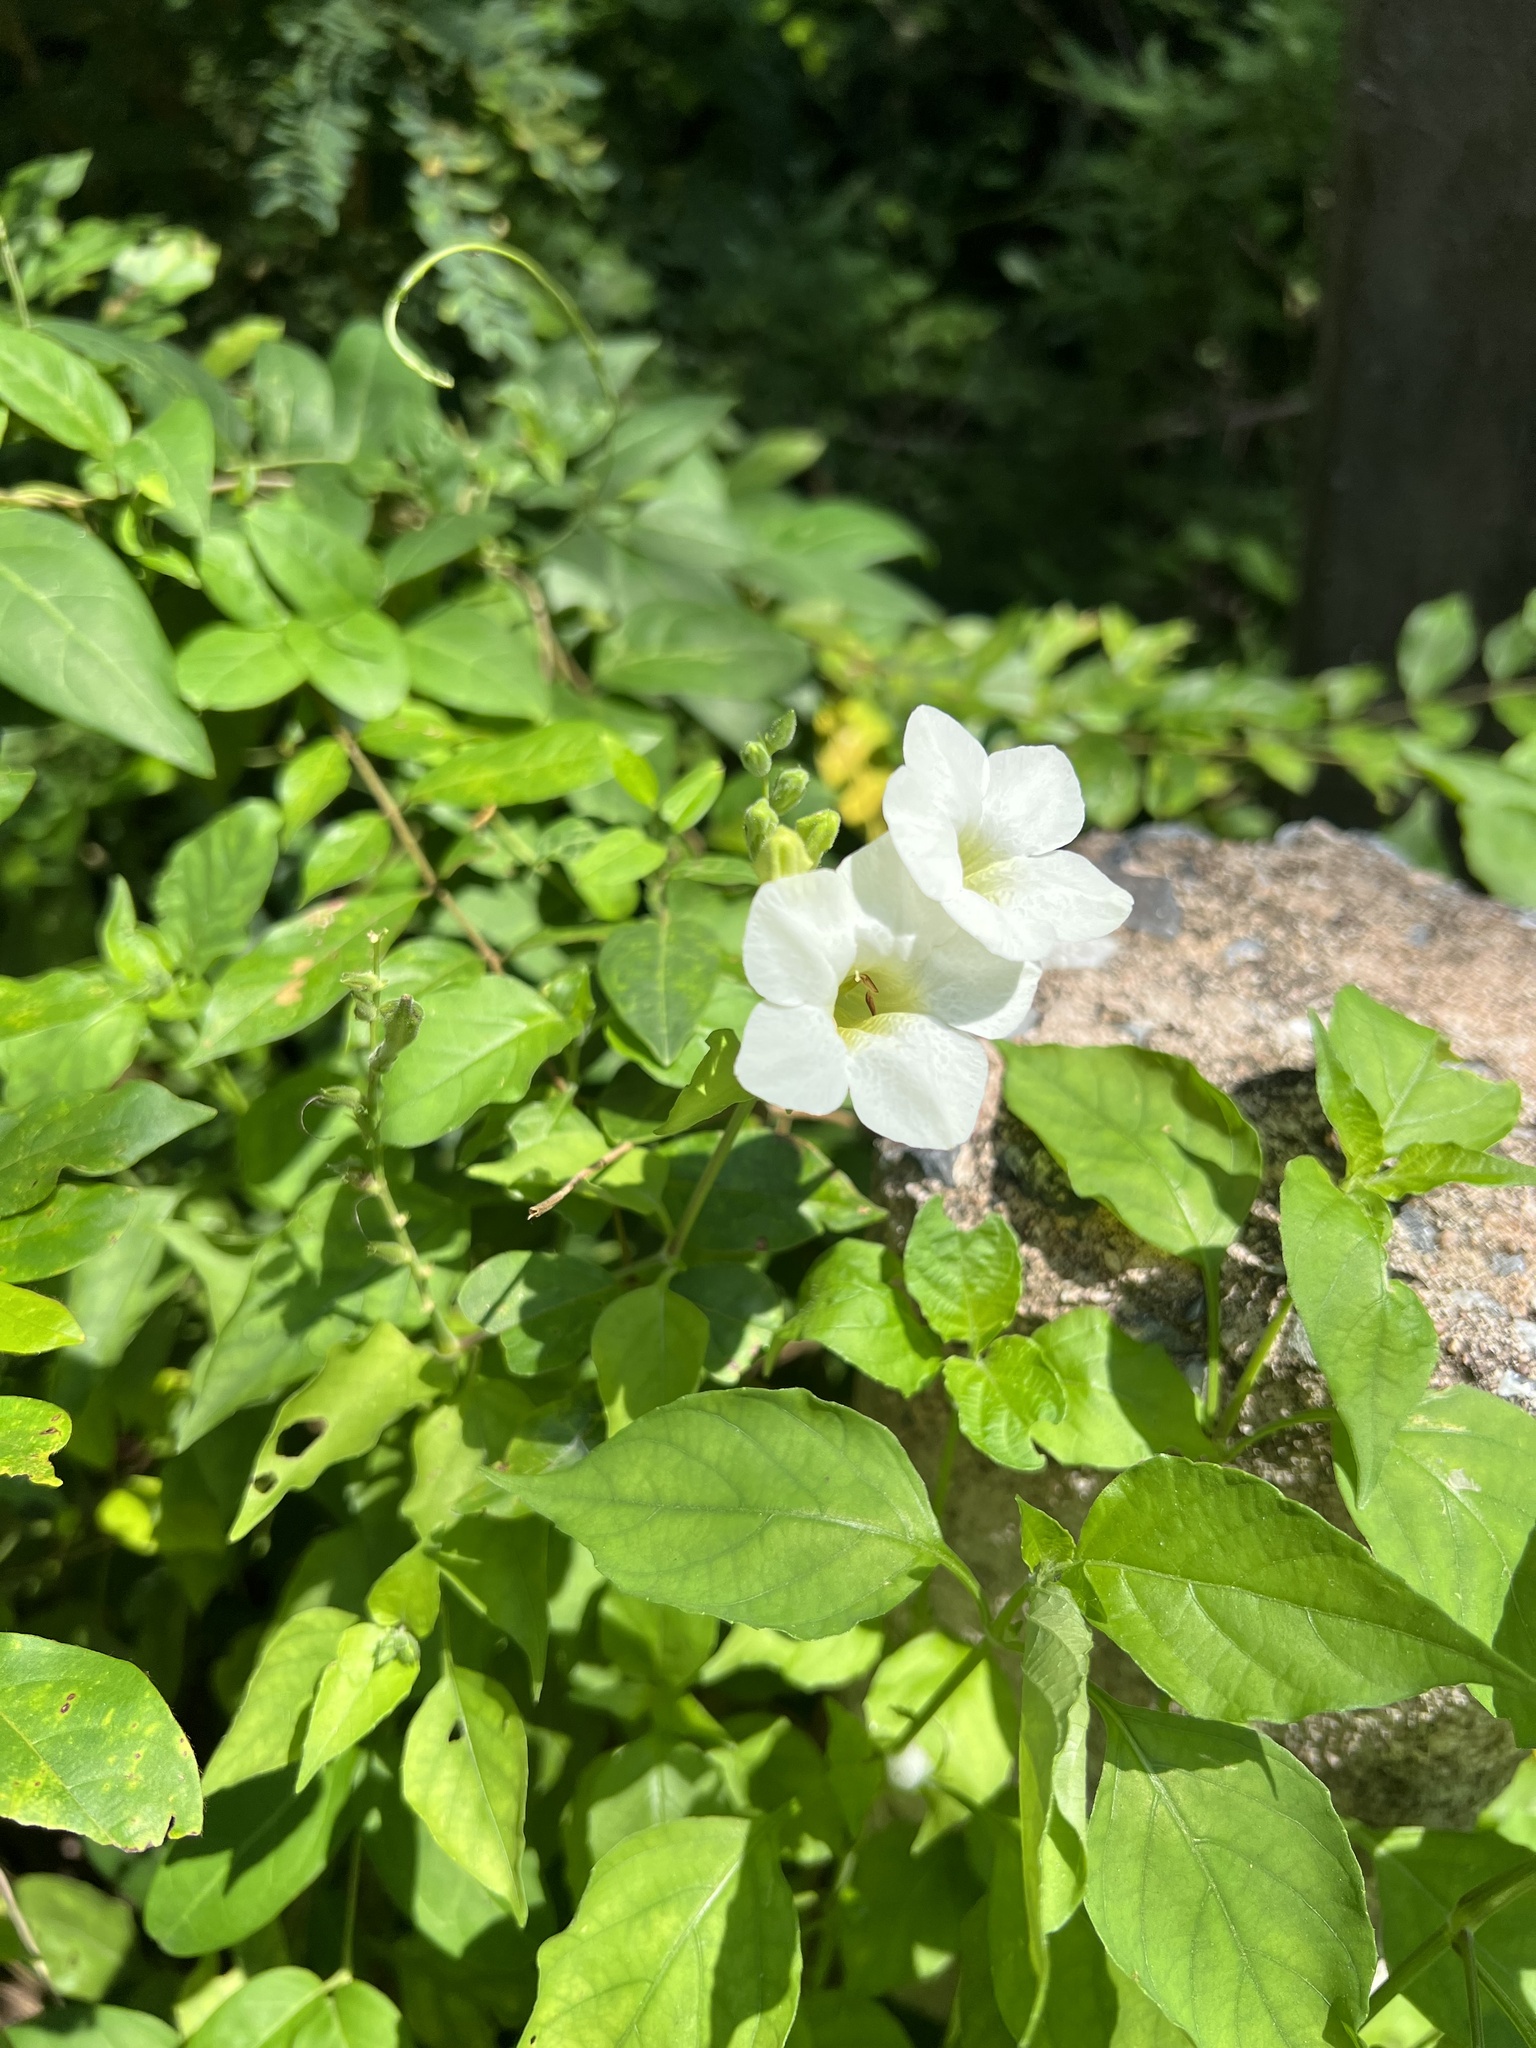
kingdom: Plantae
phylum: Tracheophyta
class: Magnoliopsida
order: Lamiales
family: Acanthaceae
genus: Asystasia
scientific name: Asystasia gangetica
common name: Chinese violet
